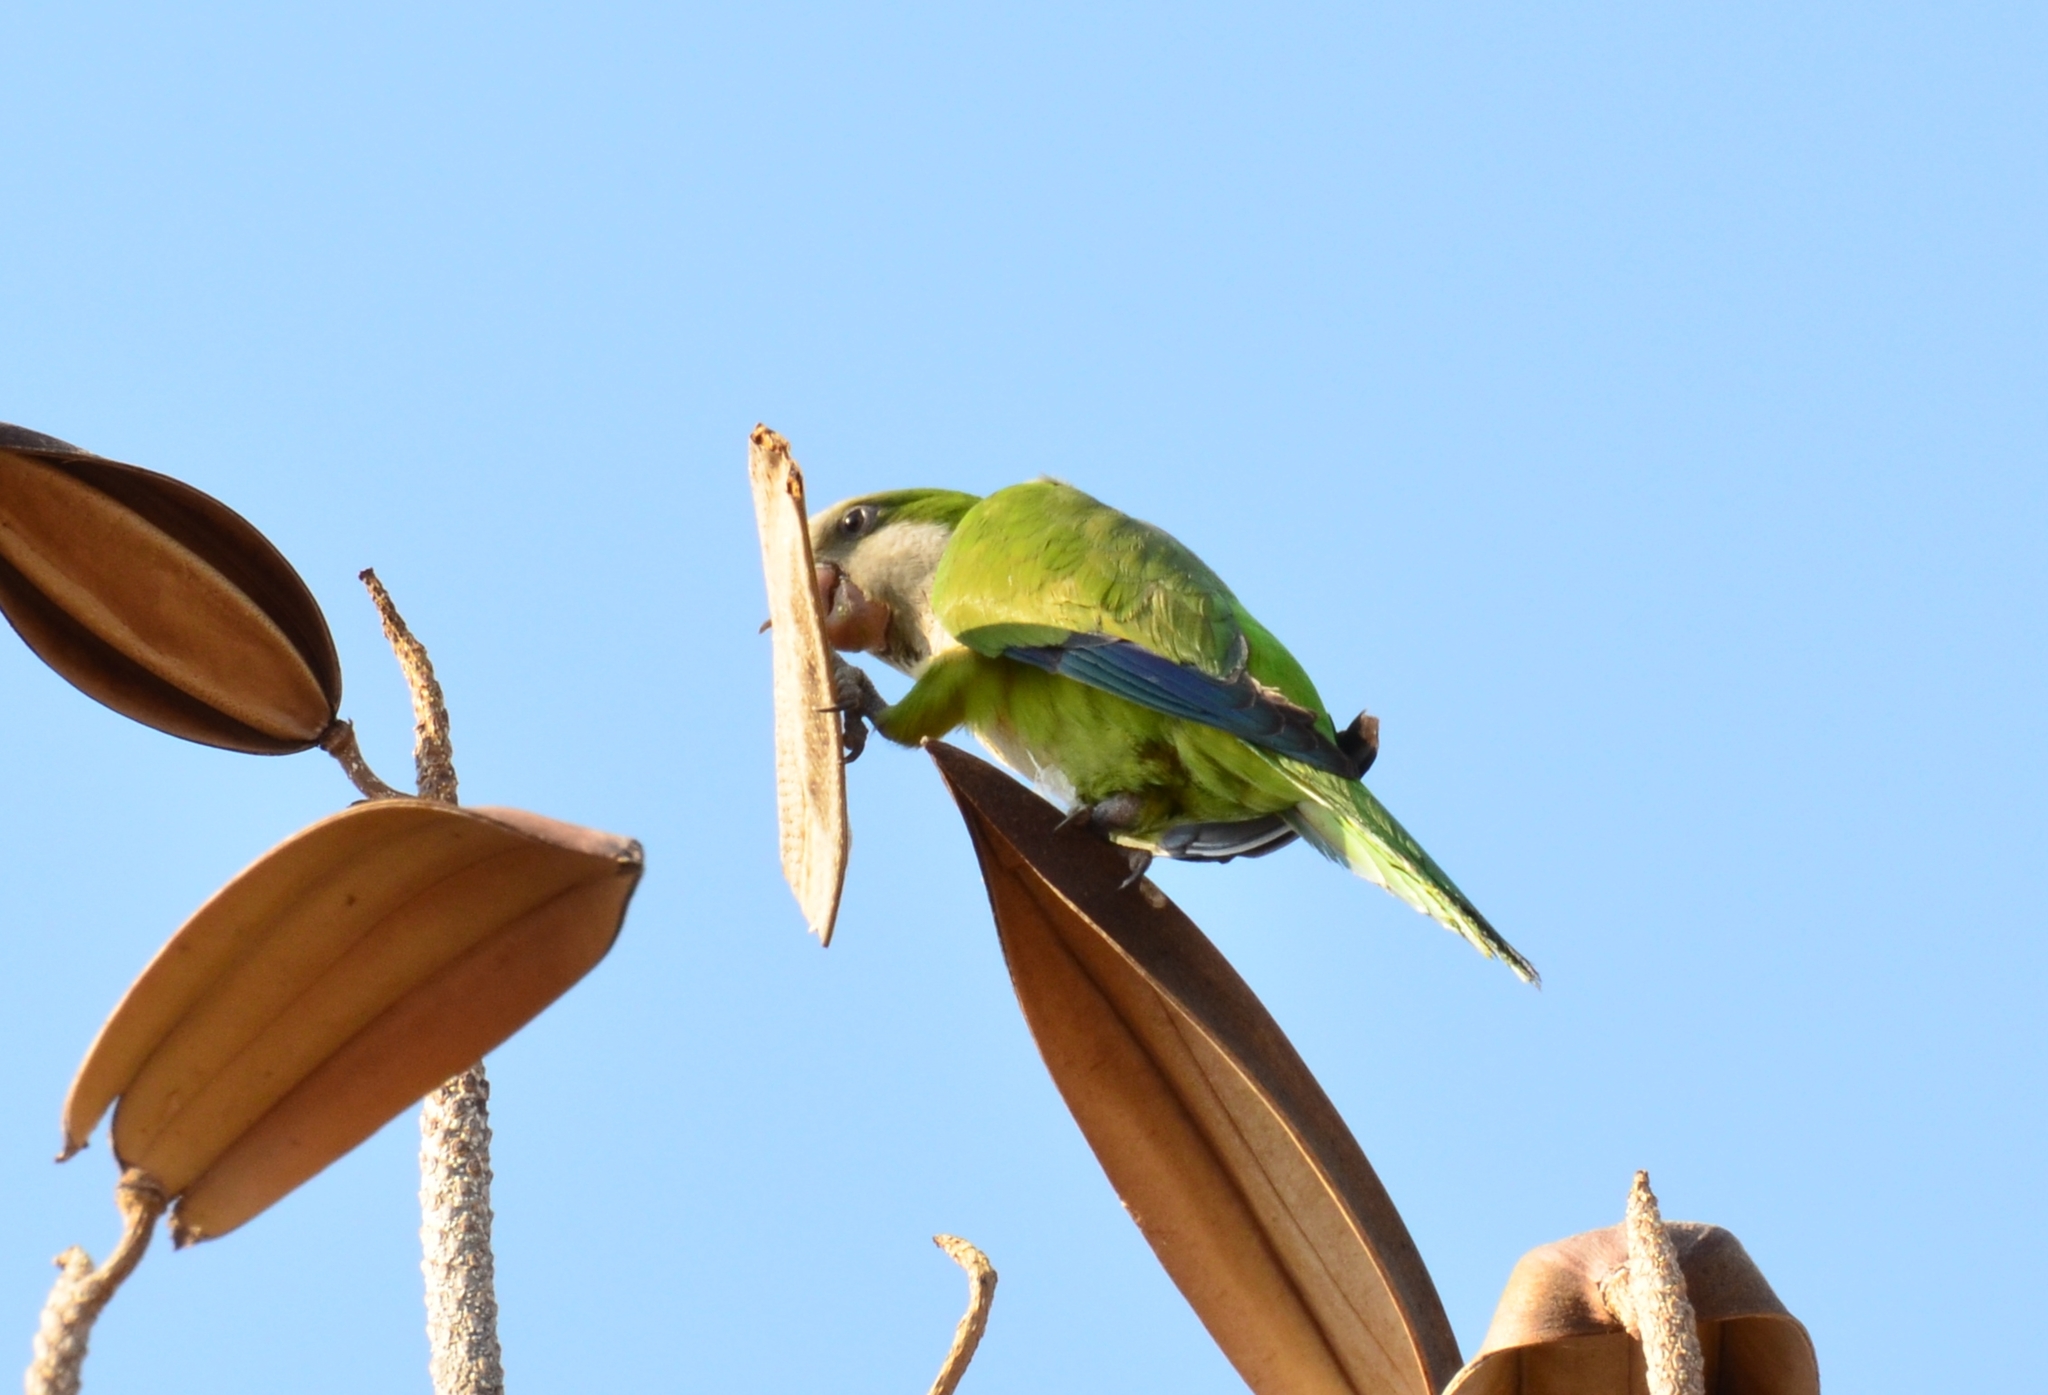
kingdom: Animalia
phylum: Chordata
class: Aves
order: Psittaciformes
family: Psittacidae
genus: Myiopsitta
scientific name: Myiopsitta monachus
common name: Monk parakeet
